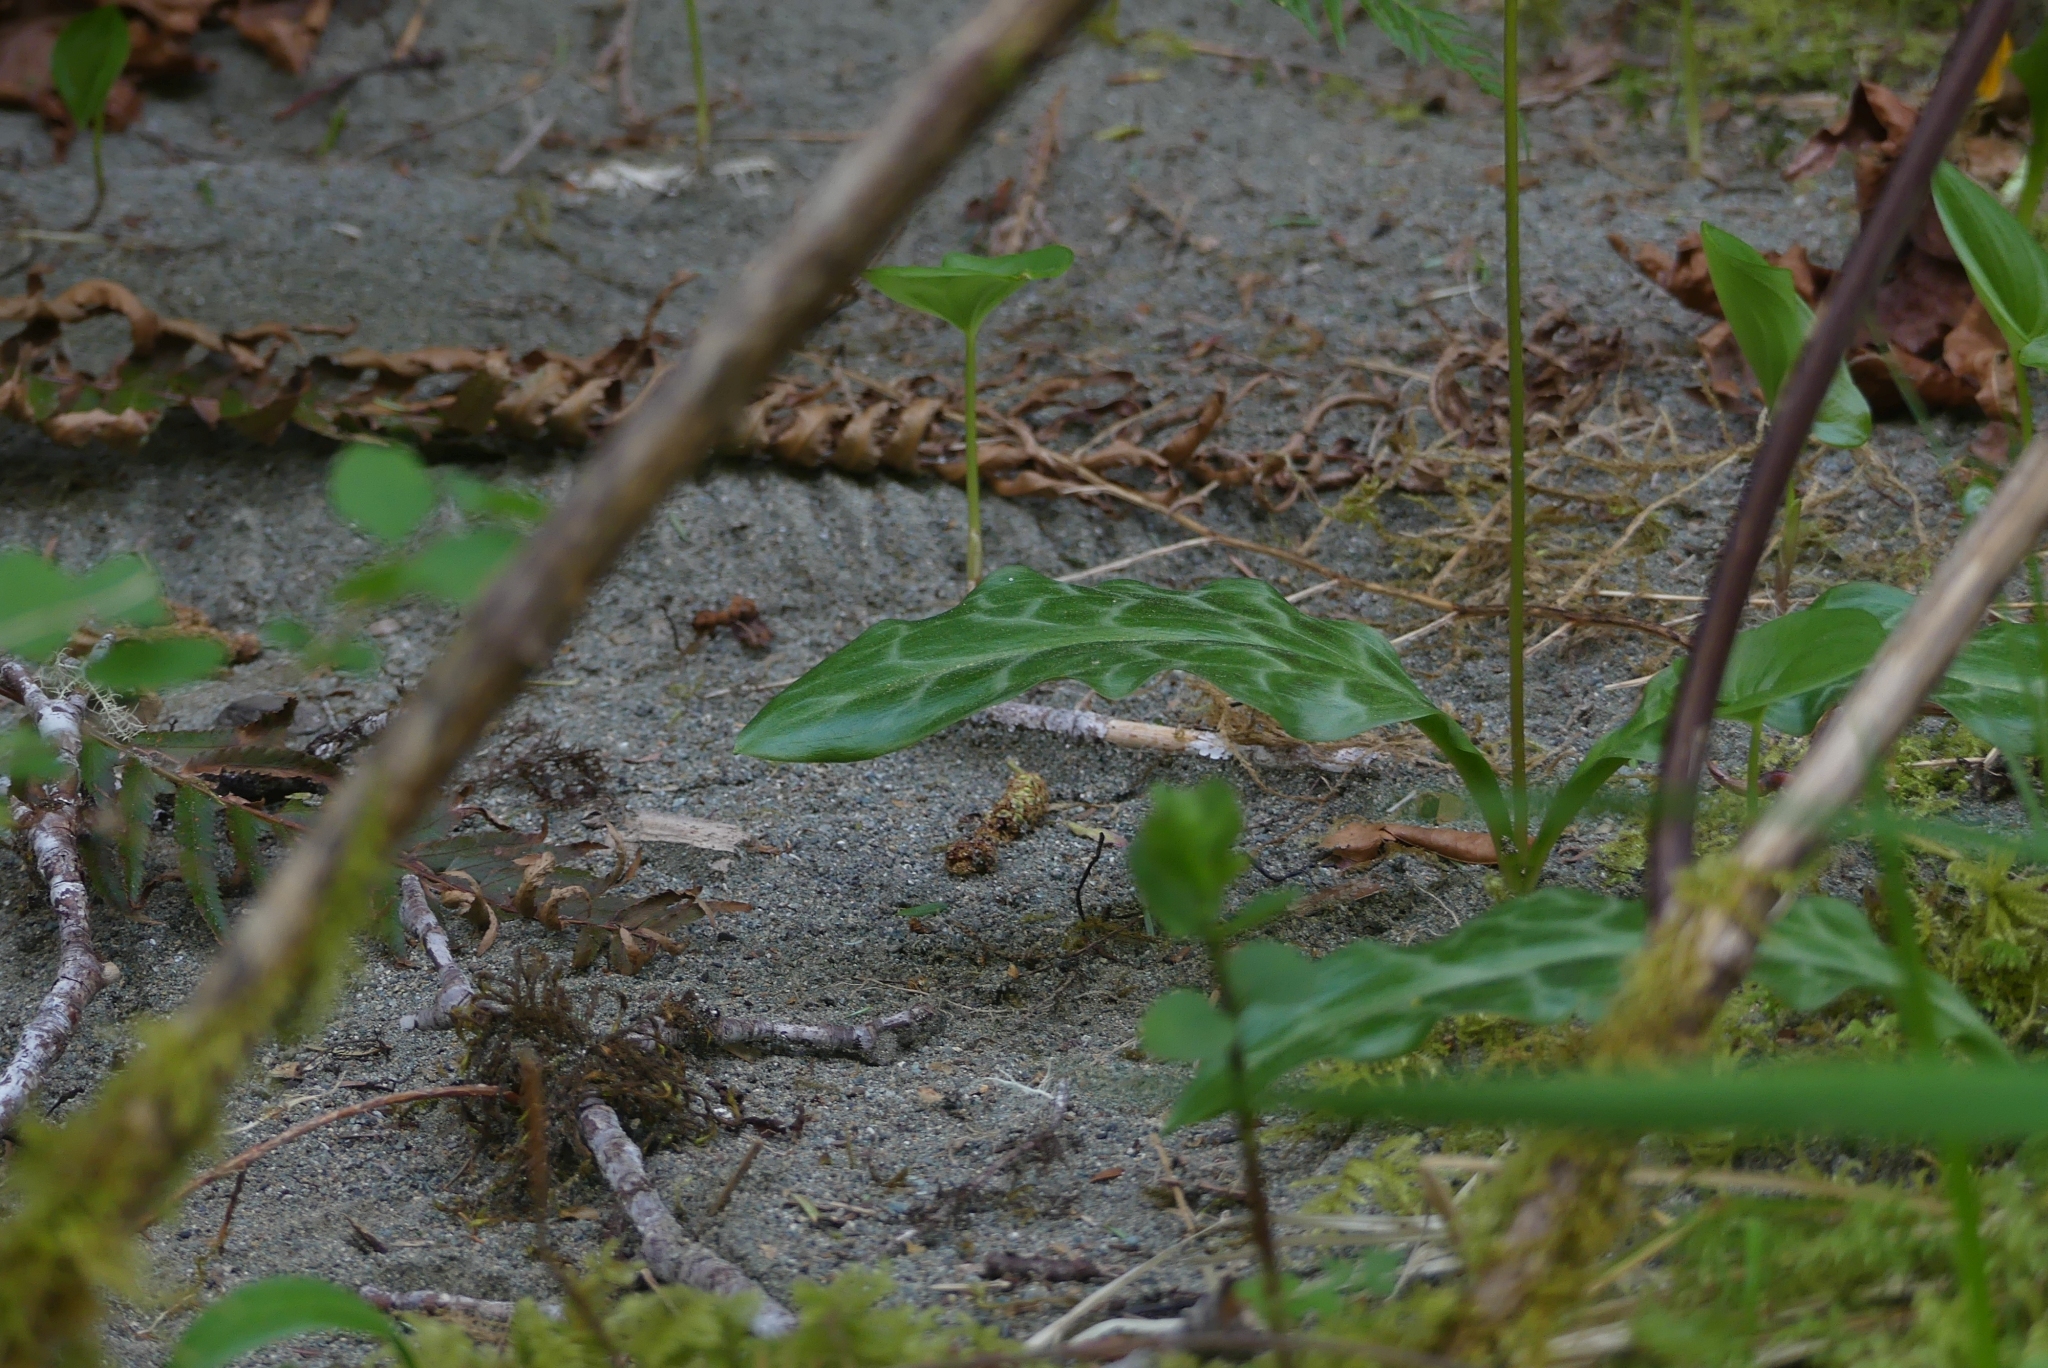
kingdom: Plantae
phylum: Tracheophyta
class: Liliopsida
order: Liliales
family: Liliaceae
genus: Erythronium
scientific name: Erythronium revolutum
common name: Pink fawn-lily
